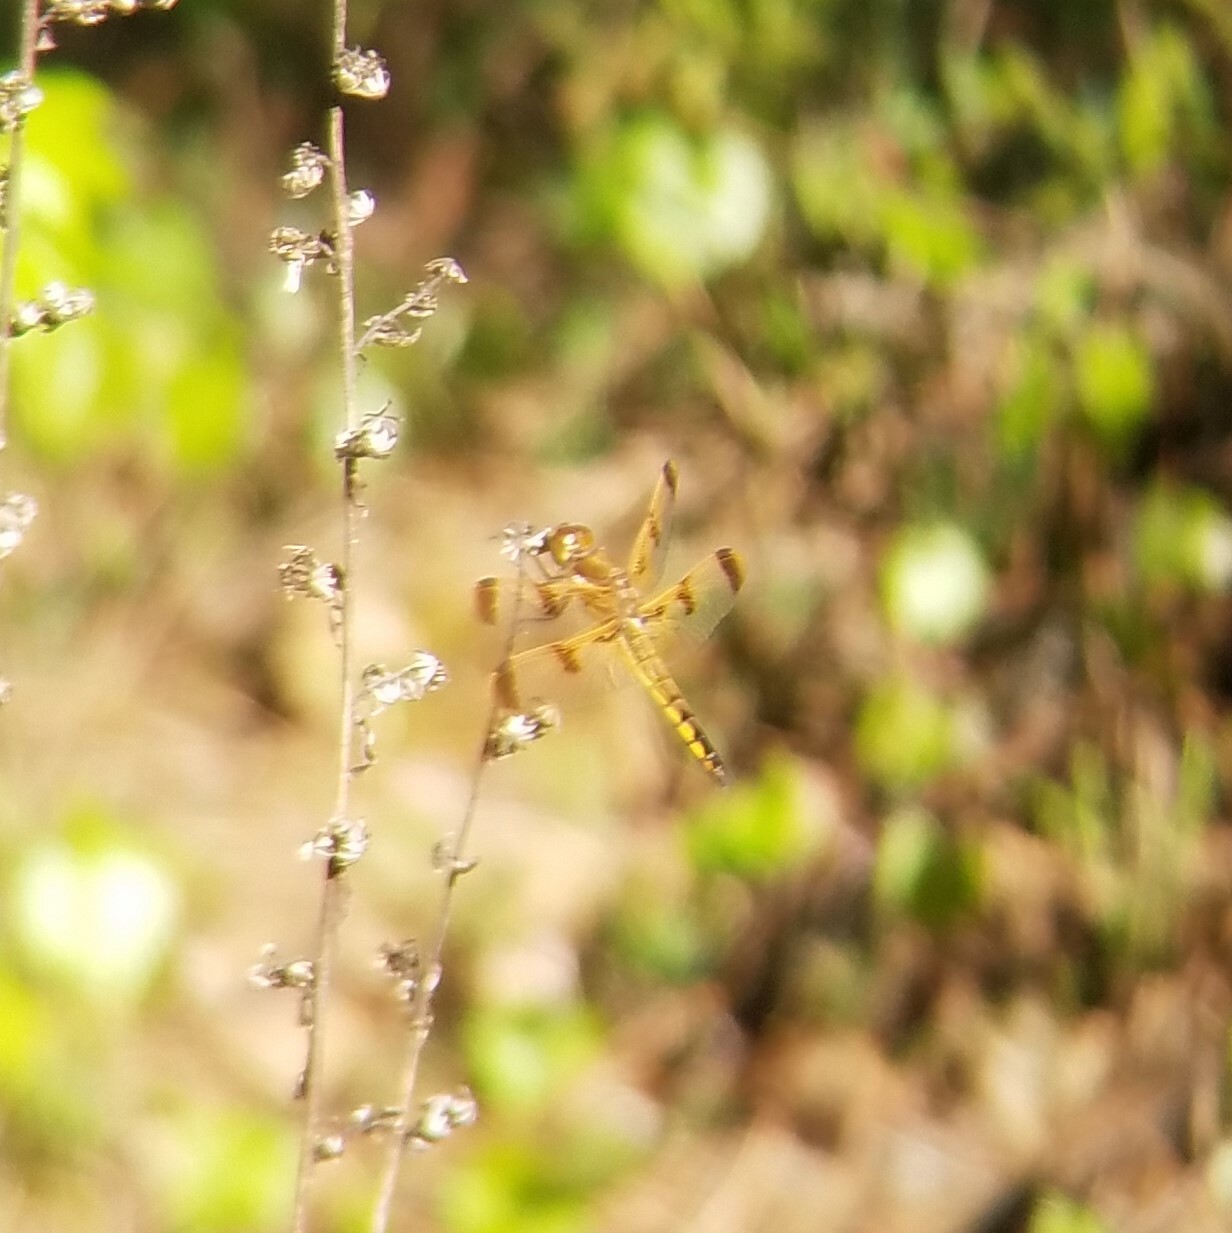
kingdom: Animalia
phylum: Arthropoda
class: Insecta
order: Odonata
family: Libellulidae
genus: Libellula
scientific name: Libellula semifasciata
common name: Painted skimmer
